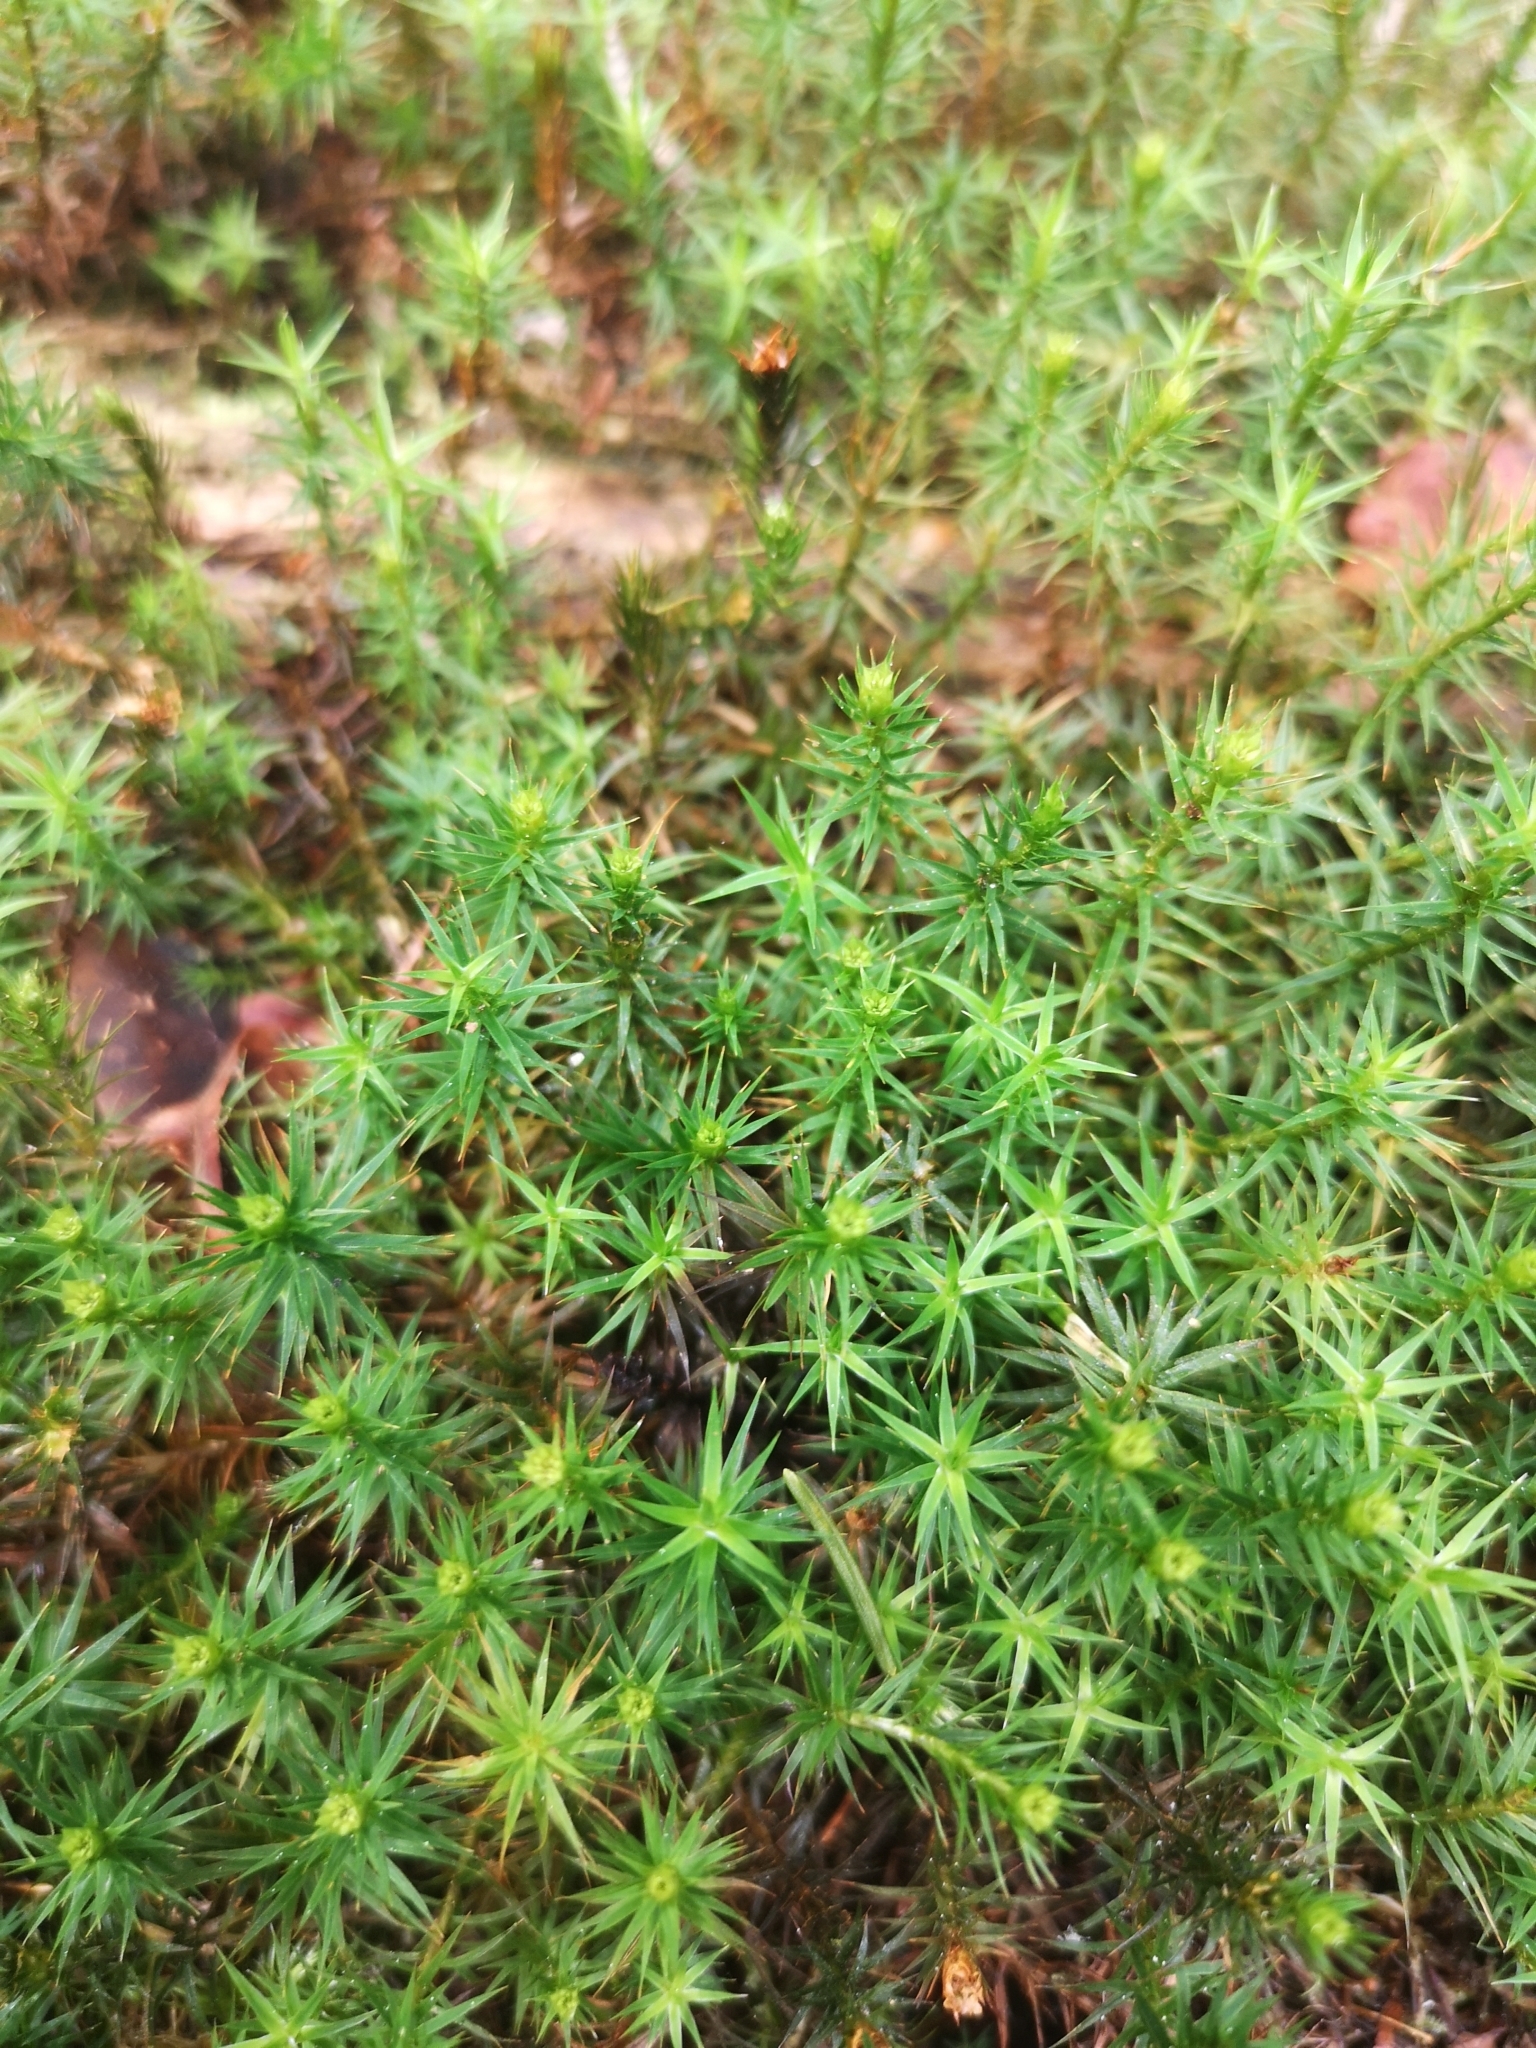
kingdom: Plantae
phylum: Bryophyta
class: Polytrichopsida
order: Polytrichales
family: Polytrichaceae
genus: Polytrichum
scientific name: Polytrichum formosum
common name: Bank haircap moss
